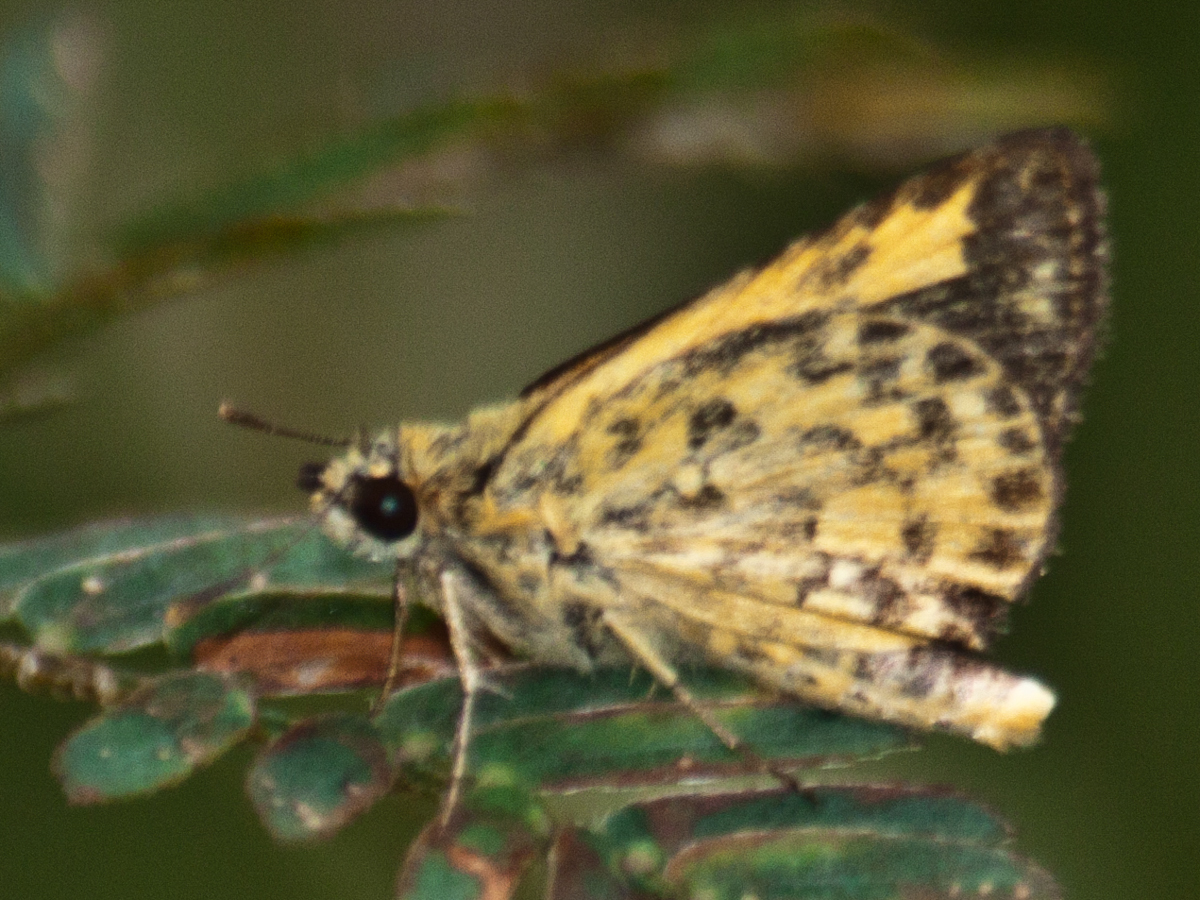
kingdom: Animalia
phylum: Arthropoda
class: Insecta
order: Lepidoptera
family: Hesperiidae
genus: Ampittia
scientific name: Ampittia dioscorides
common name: Common bush hopper
